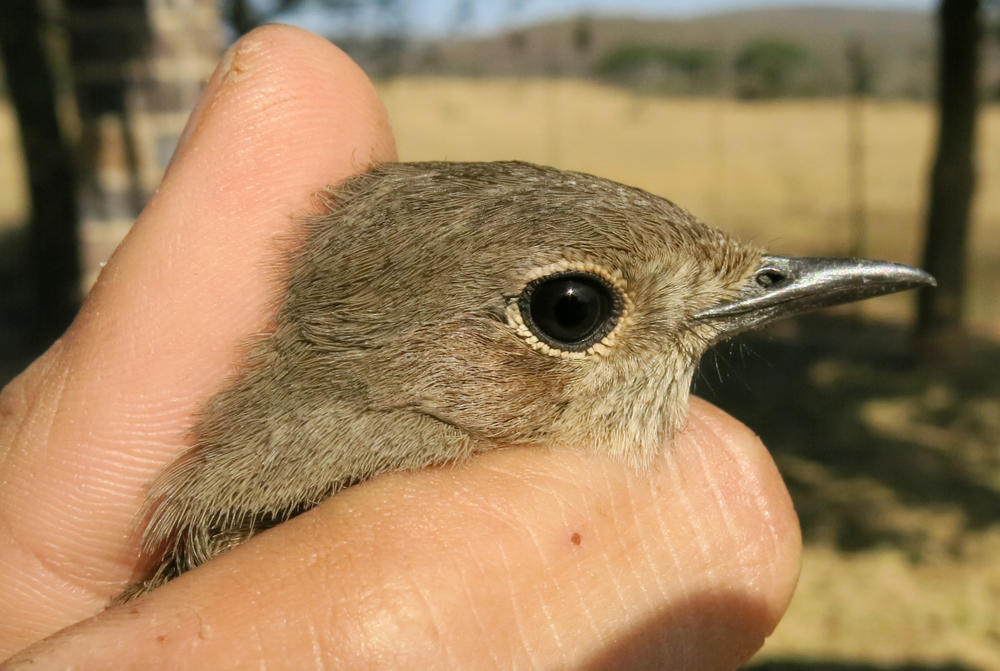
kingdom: Animalia
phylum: Chordata
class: Aves
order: Passeriformes
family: Muscicapidae
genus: Oenanthe
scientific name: Oenanthe familiaris
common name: Familiar chat
